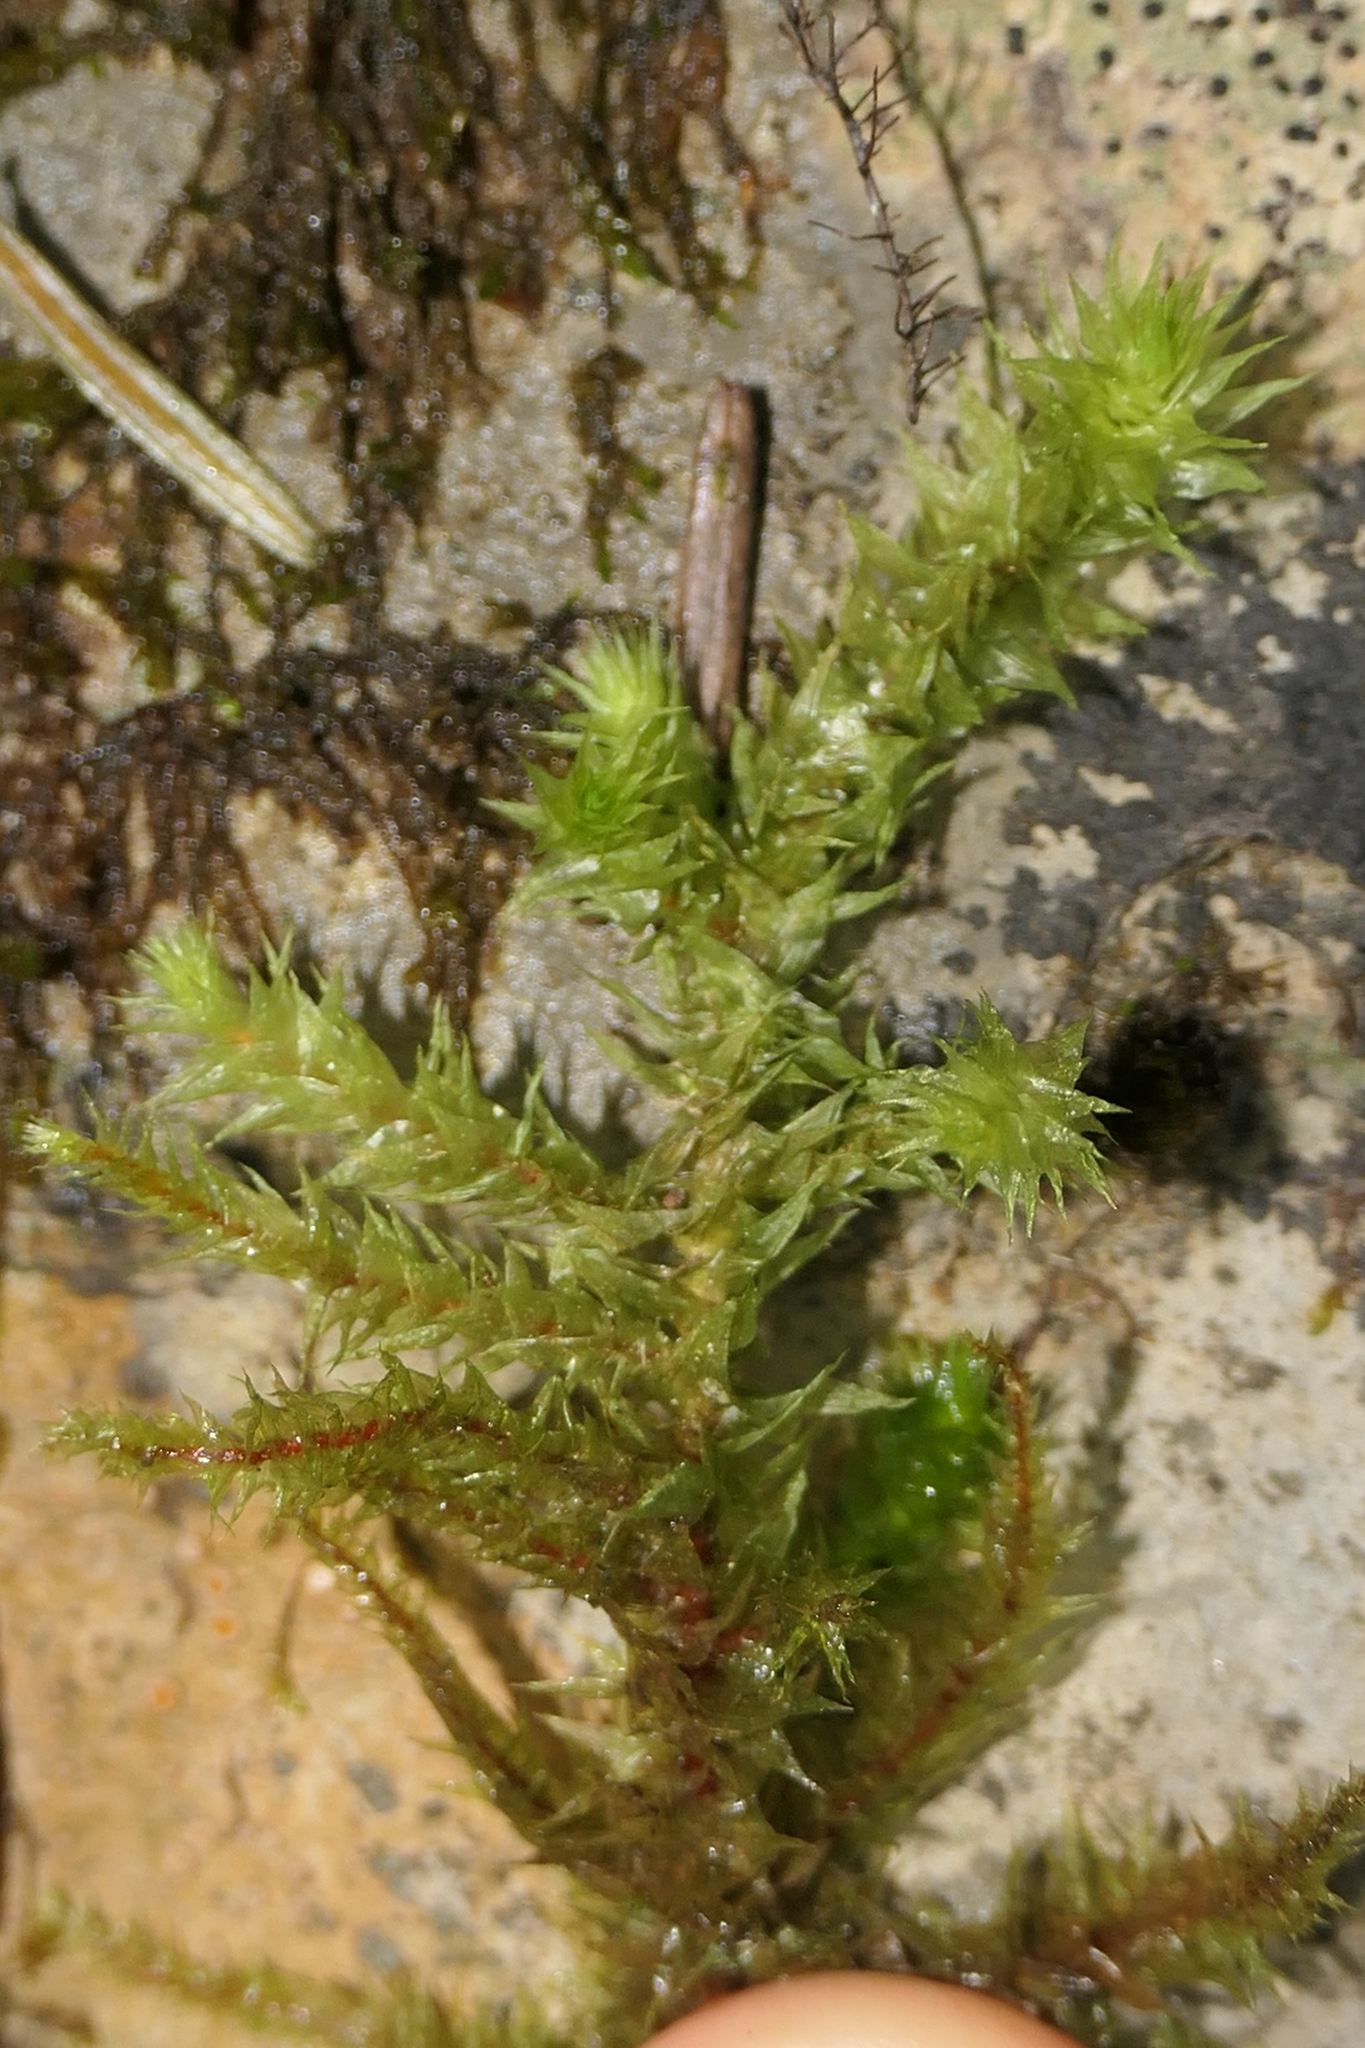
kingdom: Plantae
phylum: Bryophyta
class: Bryopsida
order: Hypnales
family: Hylocomiaceae
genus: Hylocomiadelphus
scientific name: Hylocomiadelphus triquetrus
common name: Rough goose neck moss
